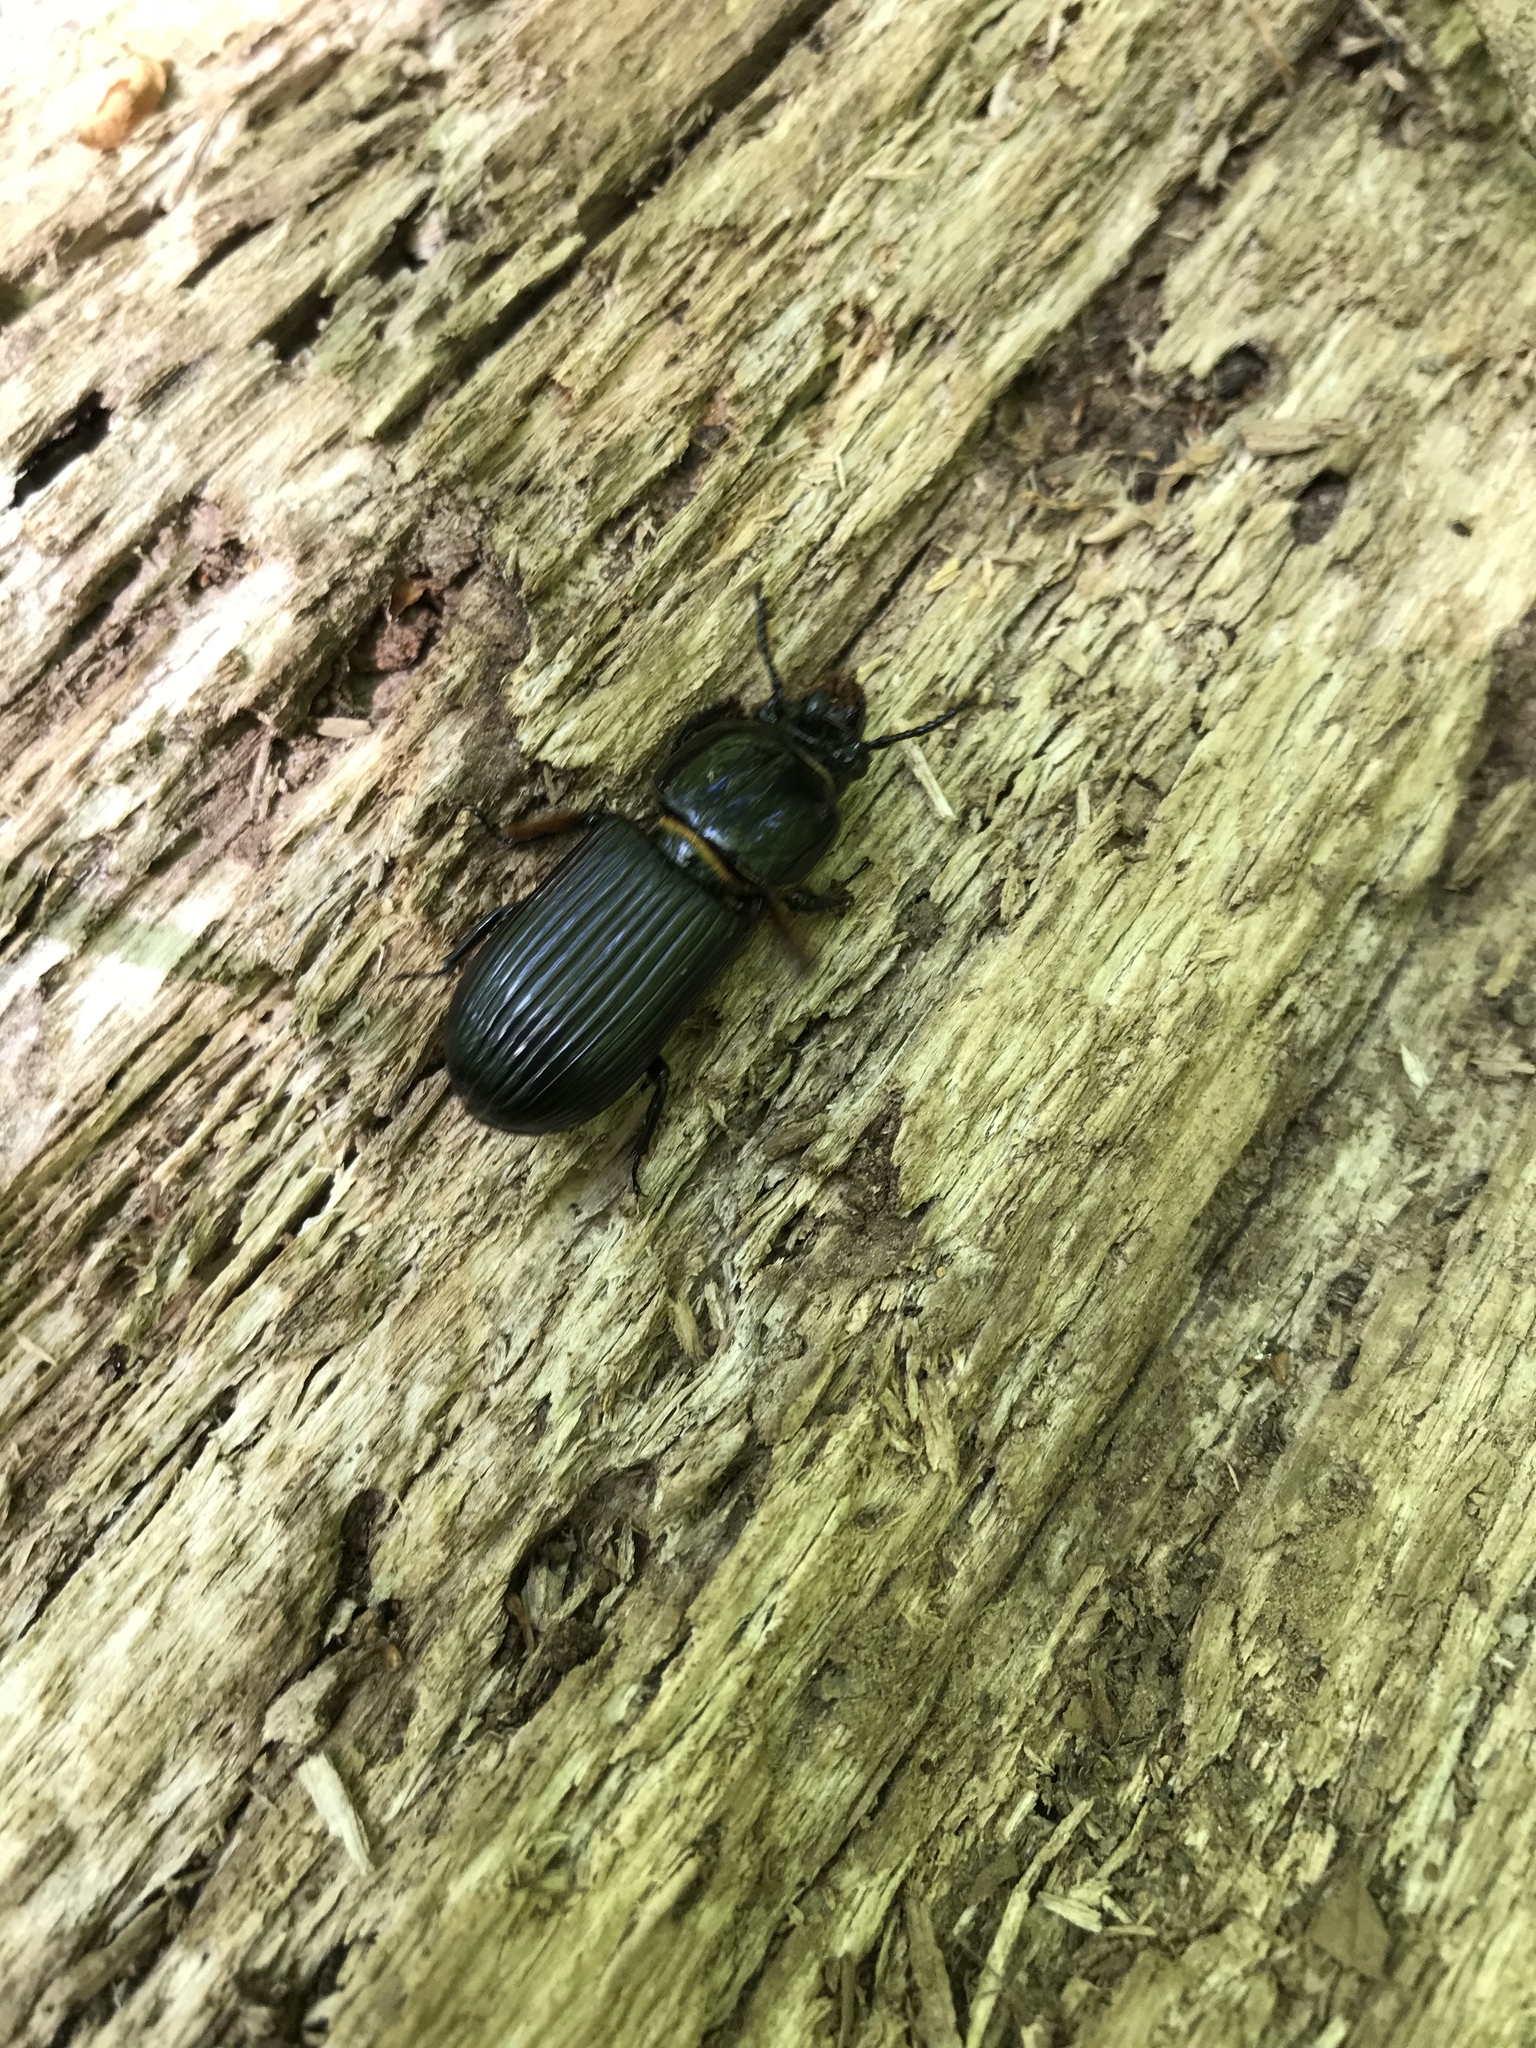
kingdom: Animalia
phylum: Arthropoda
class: Insecta
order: Coleoptera
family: Passalidae
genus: Odontotaenius
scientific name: Odontotaenius disjunctus
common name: Patent leather beetle
